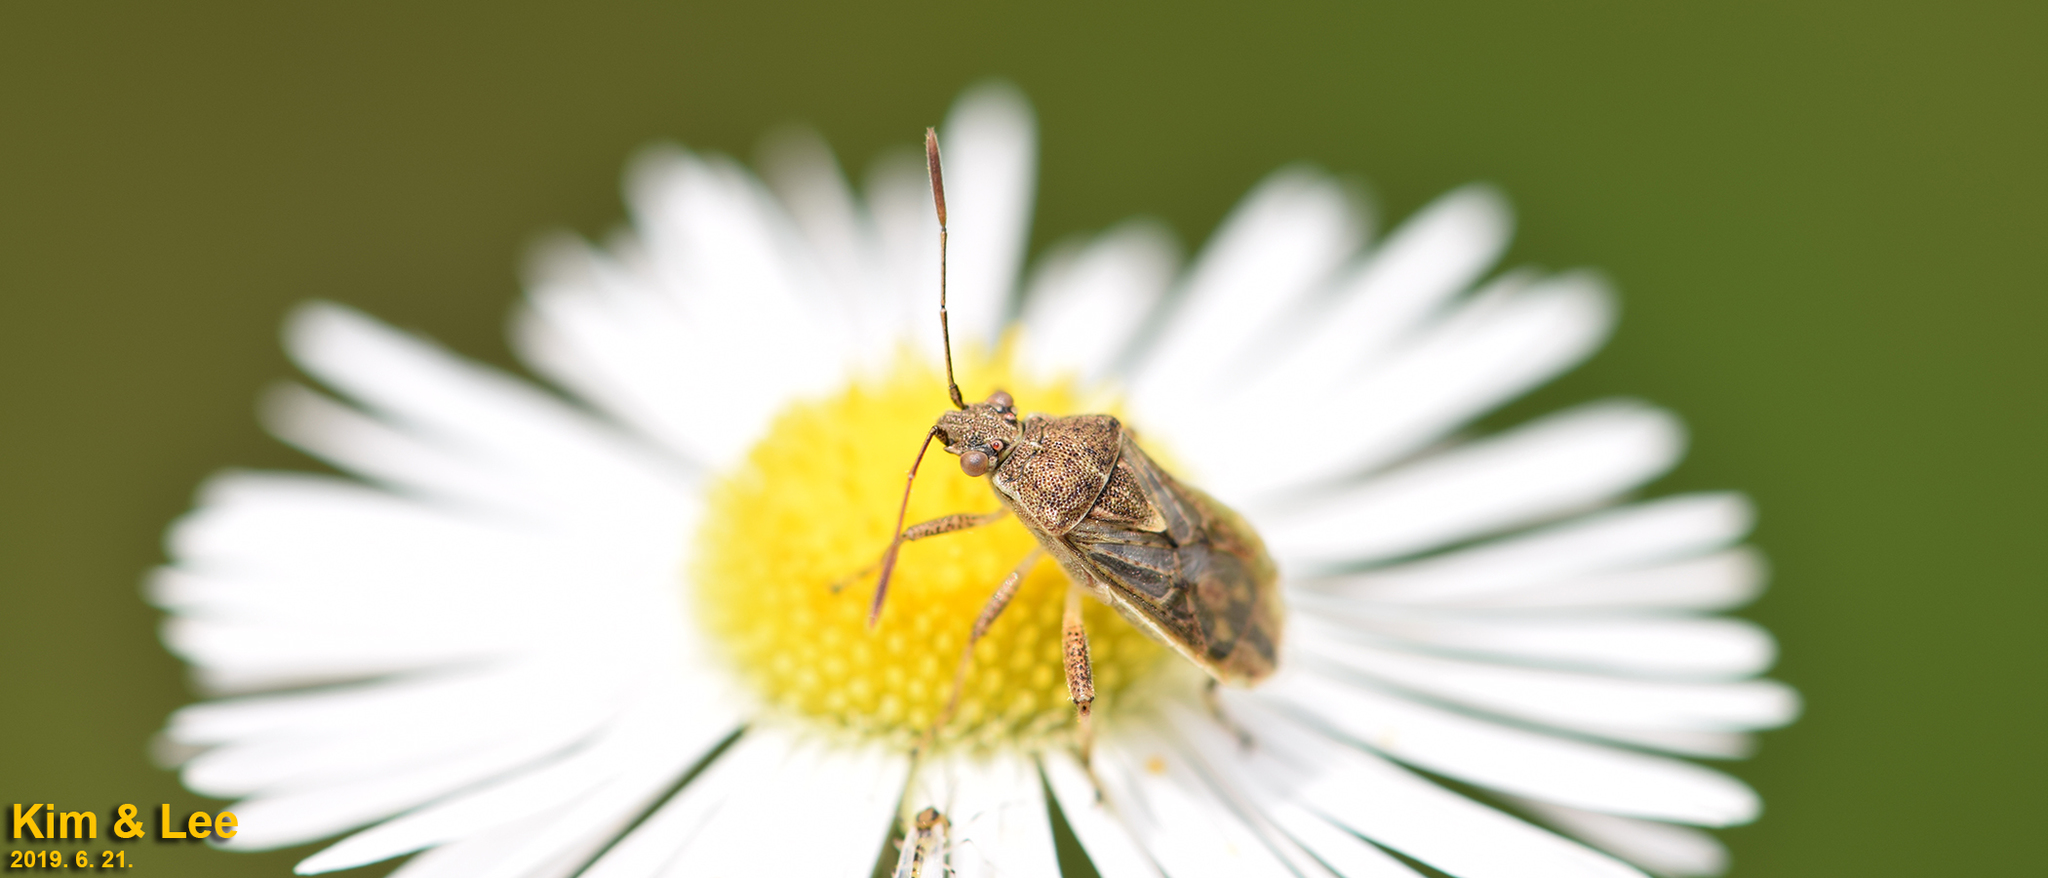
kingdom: Animalia
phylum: Arthropoda
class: Insecta
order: Hemiptera
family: Rhopalidae
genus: Stictopleurus
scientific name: Stictopleurus minutus
